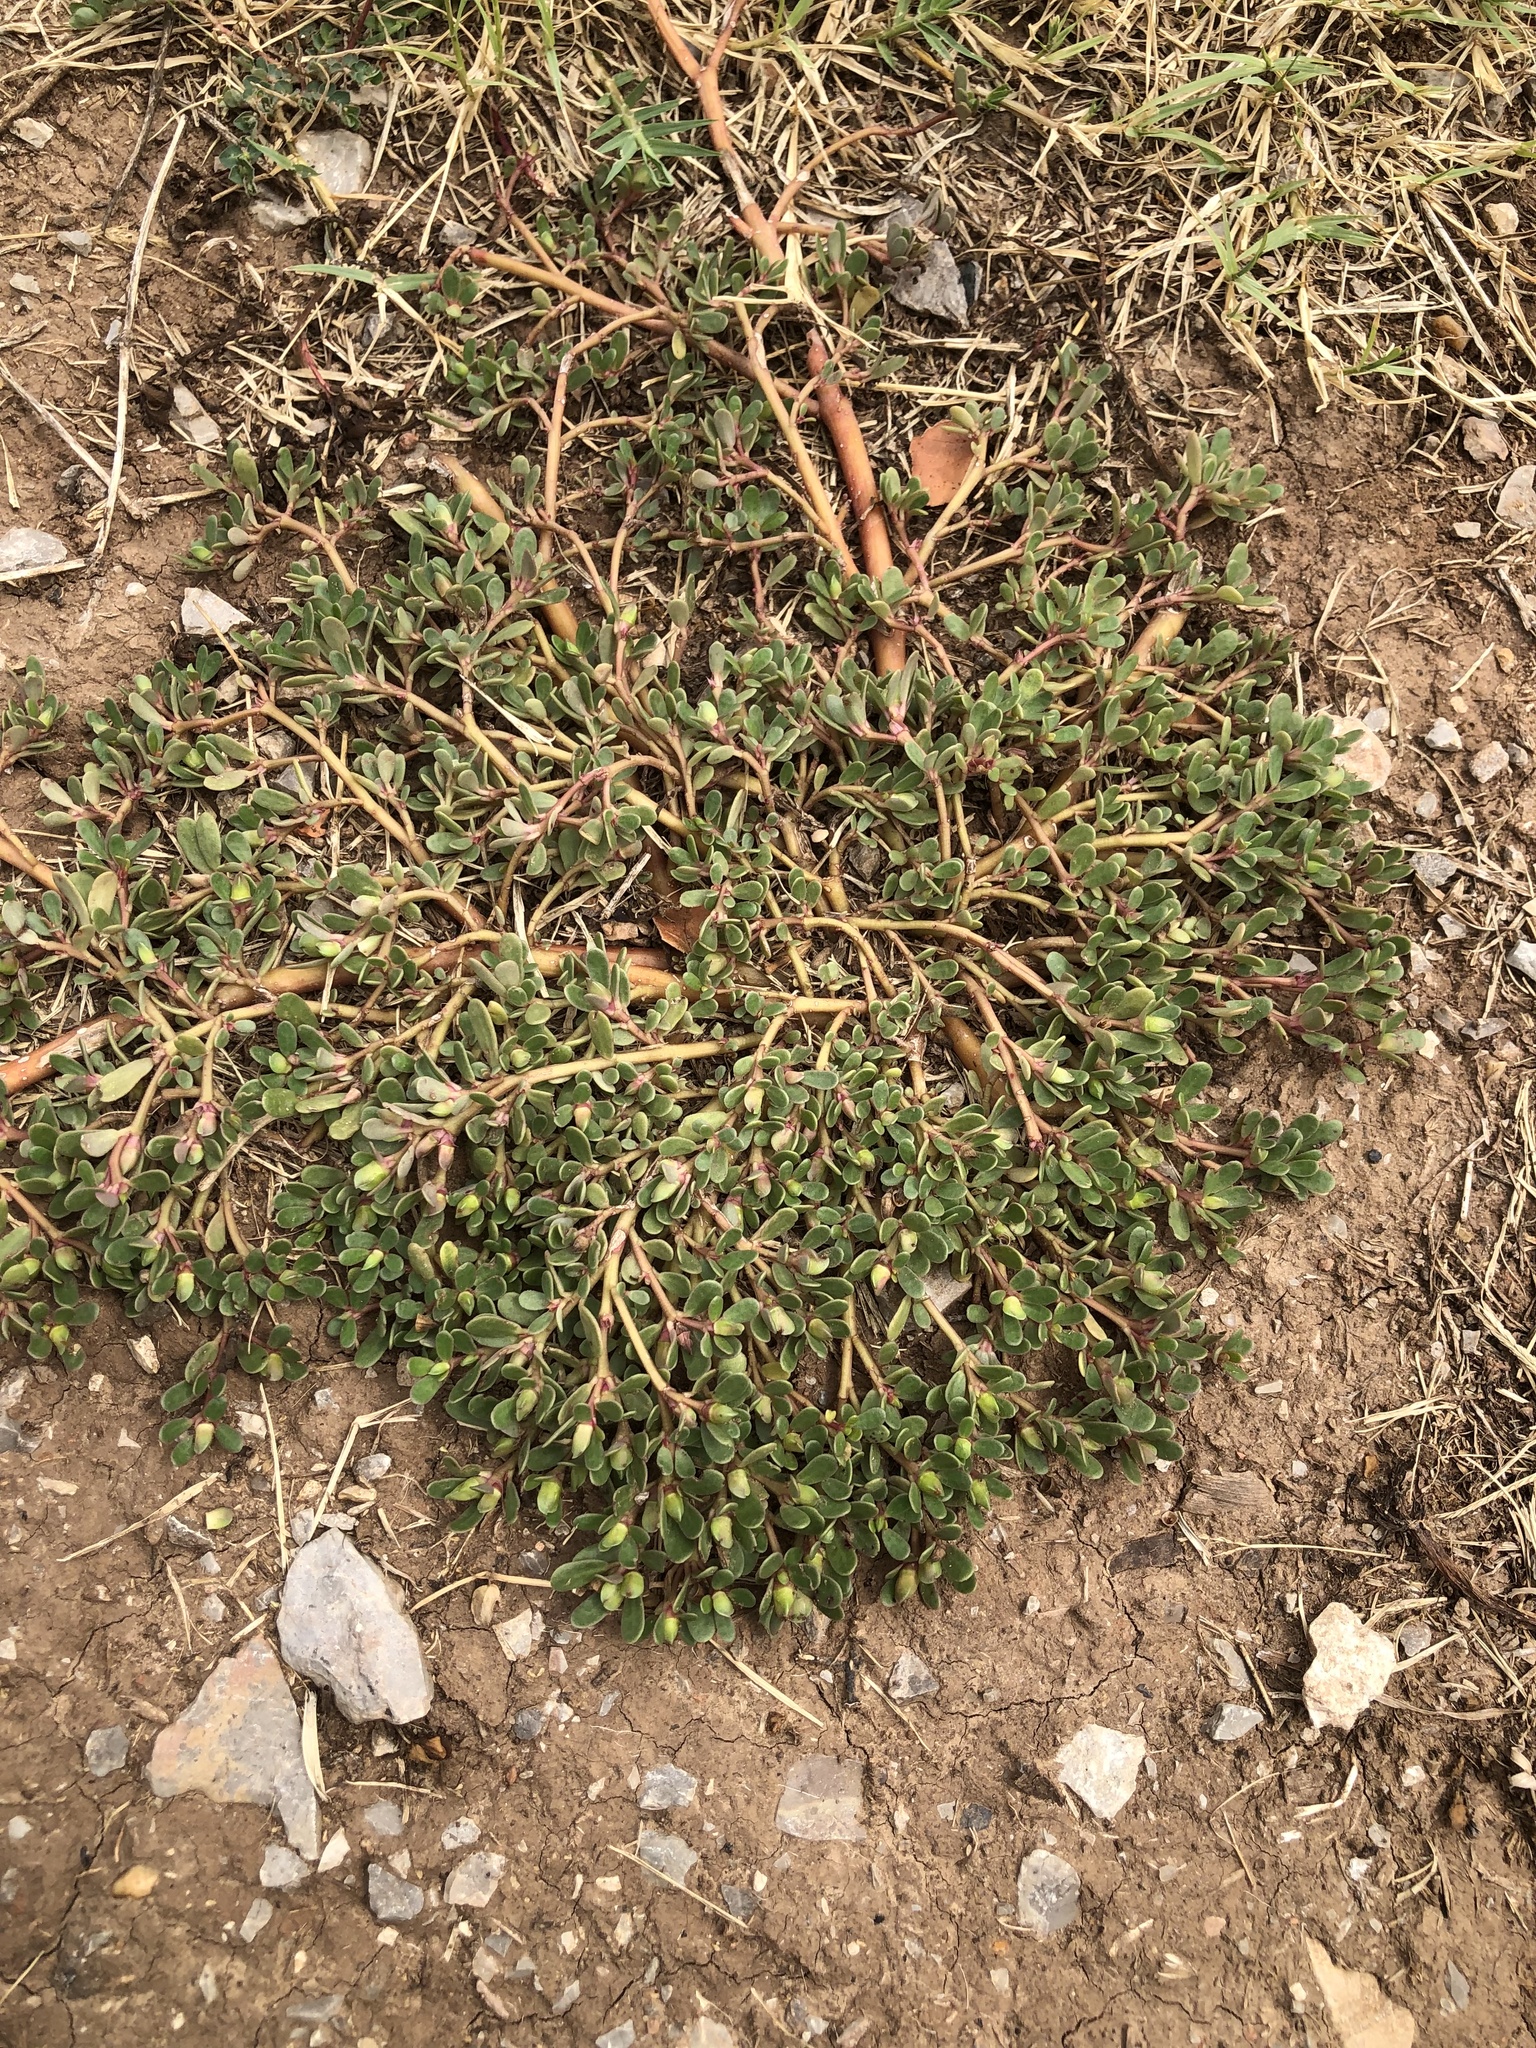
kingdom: Plantae
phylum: Tracheophyta
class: Magnoliopsida
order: Caryophyllales
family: Portulacaceae
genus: Portulaca
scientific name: Portulaca oleracea
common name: Common purslane
